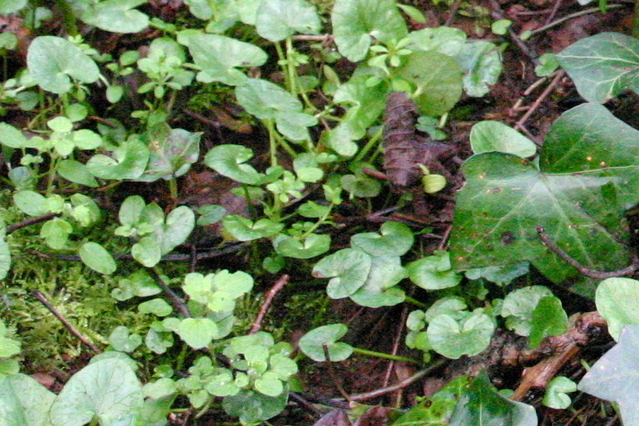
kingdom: Plantae
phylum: Tracheophyta
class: Magnoliopsida
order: Ranunculales
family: Ranunculaceae
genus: Ficaria
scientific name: Ficaria verna
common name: Lesser celandine
